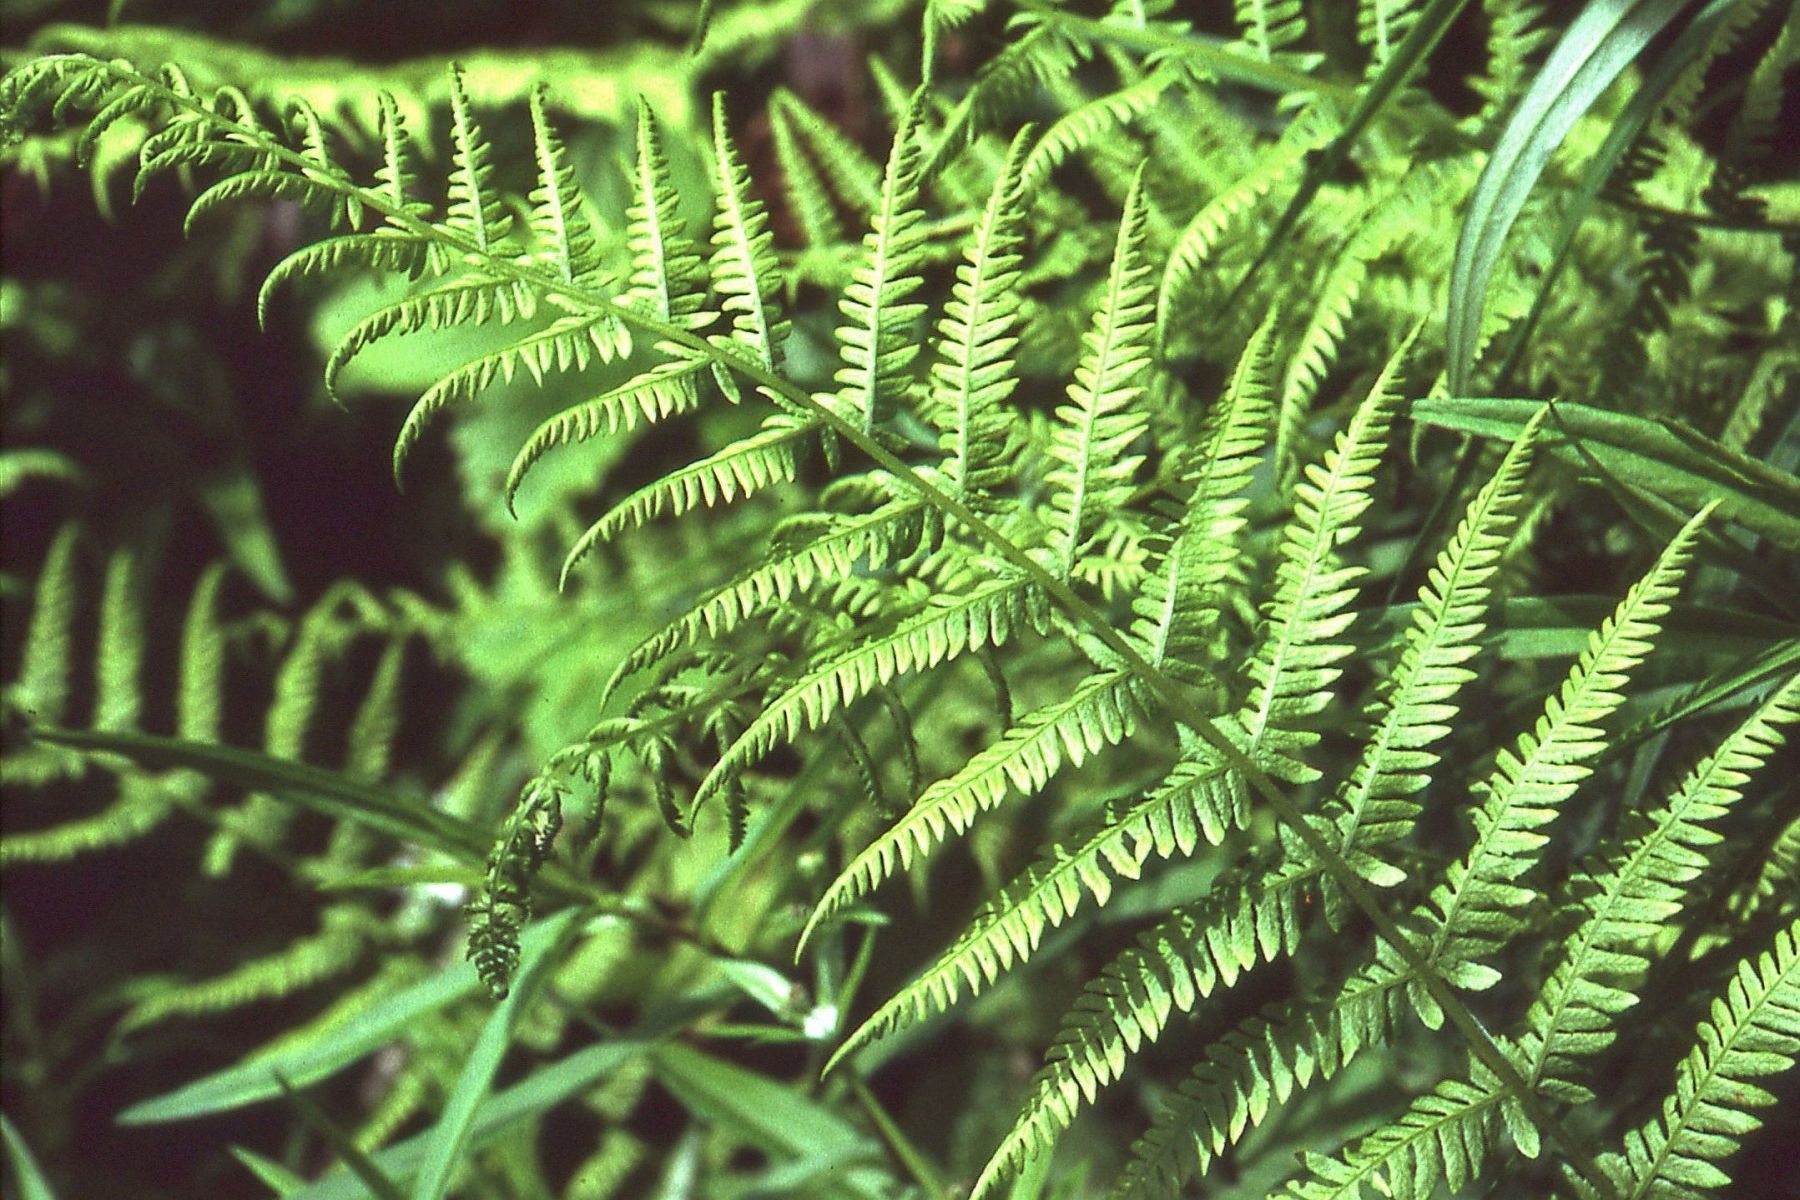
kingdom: Plantae
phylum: Tracheophyta
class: Polypodiopsida
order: Polypodiales
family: Thelypteridaceae
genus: Amauropelta
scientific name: Amauropelta nevadensis
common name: Nevada marsh fern
